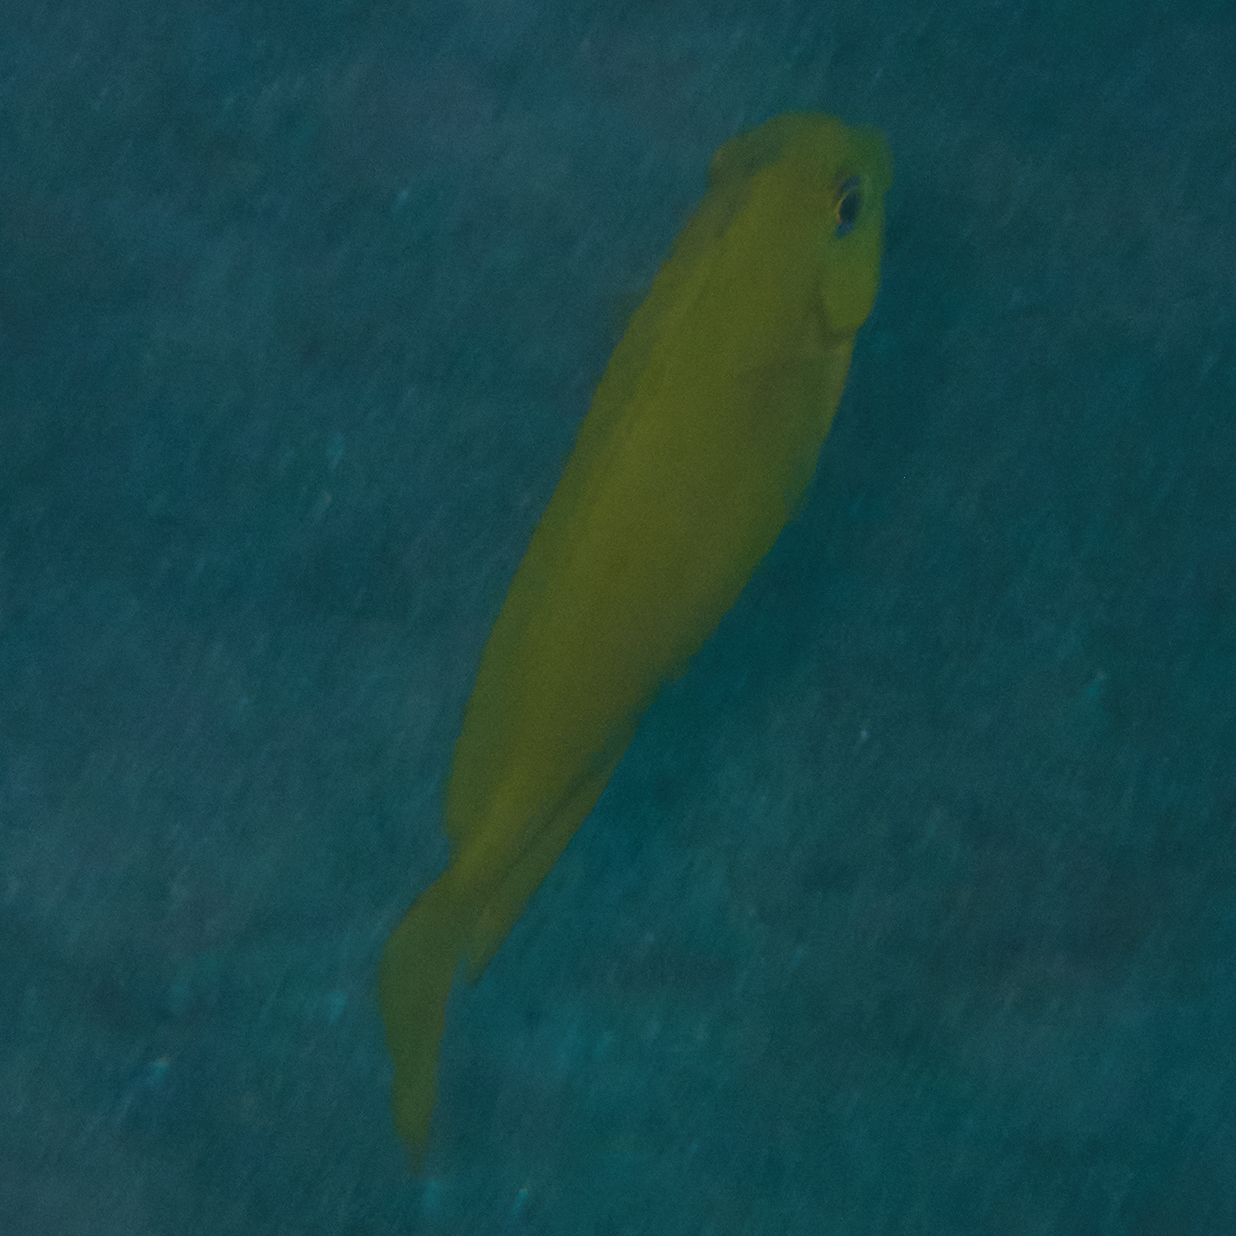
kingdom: Animalia
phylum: Chordata
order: Perciformes
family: Acanthuridae
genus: Acanthurus
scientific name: Acanthurus olivaceus
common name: Gendarme fish
